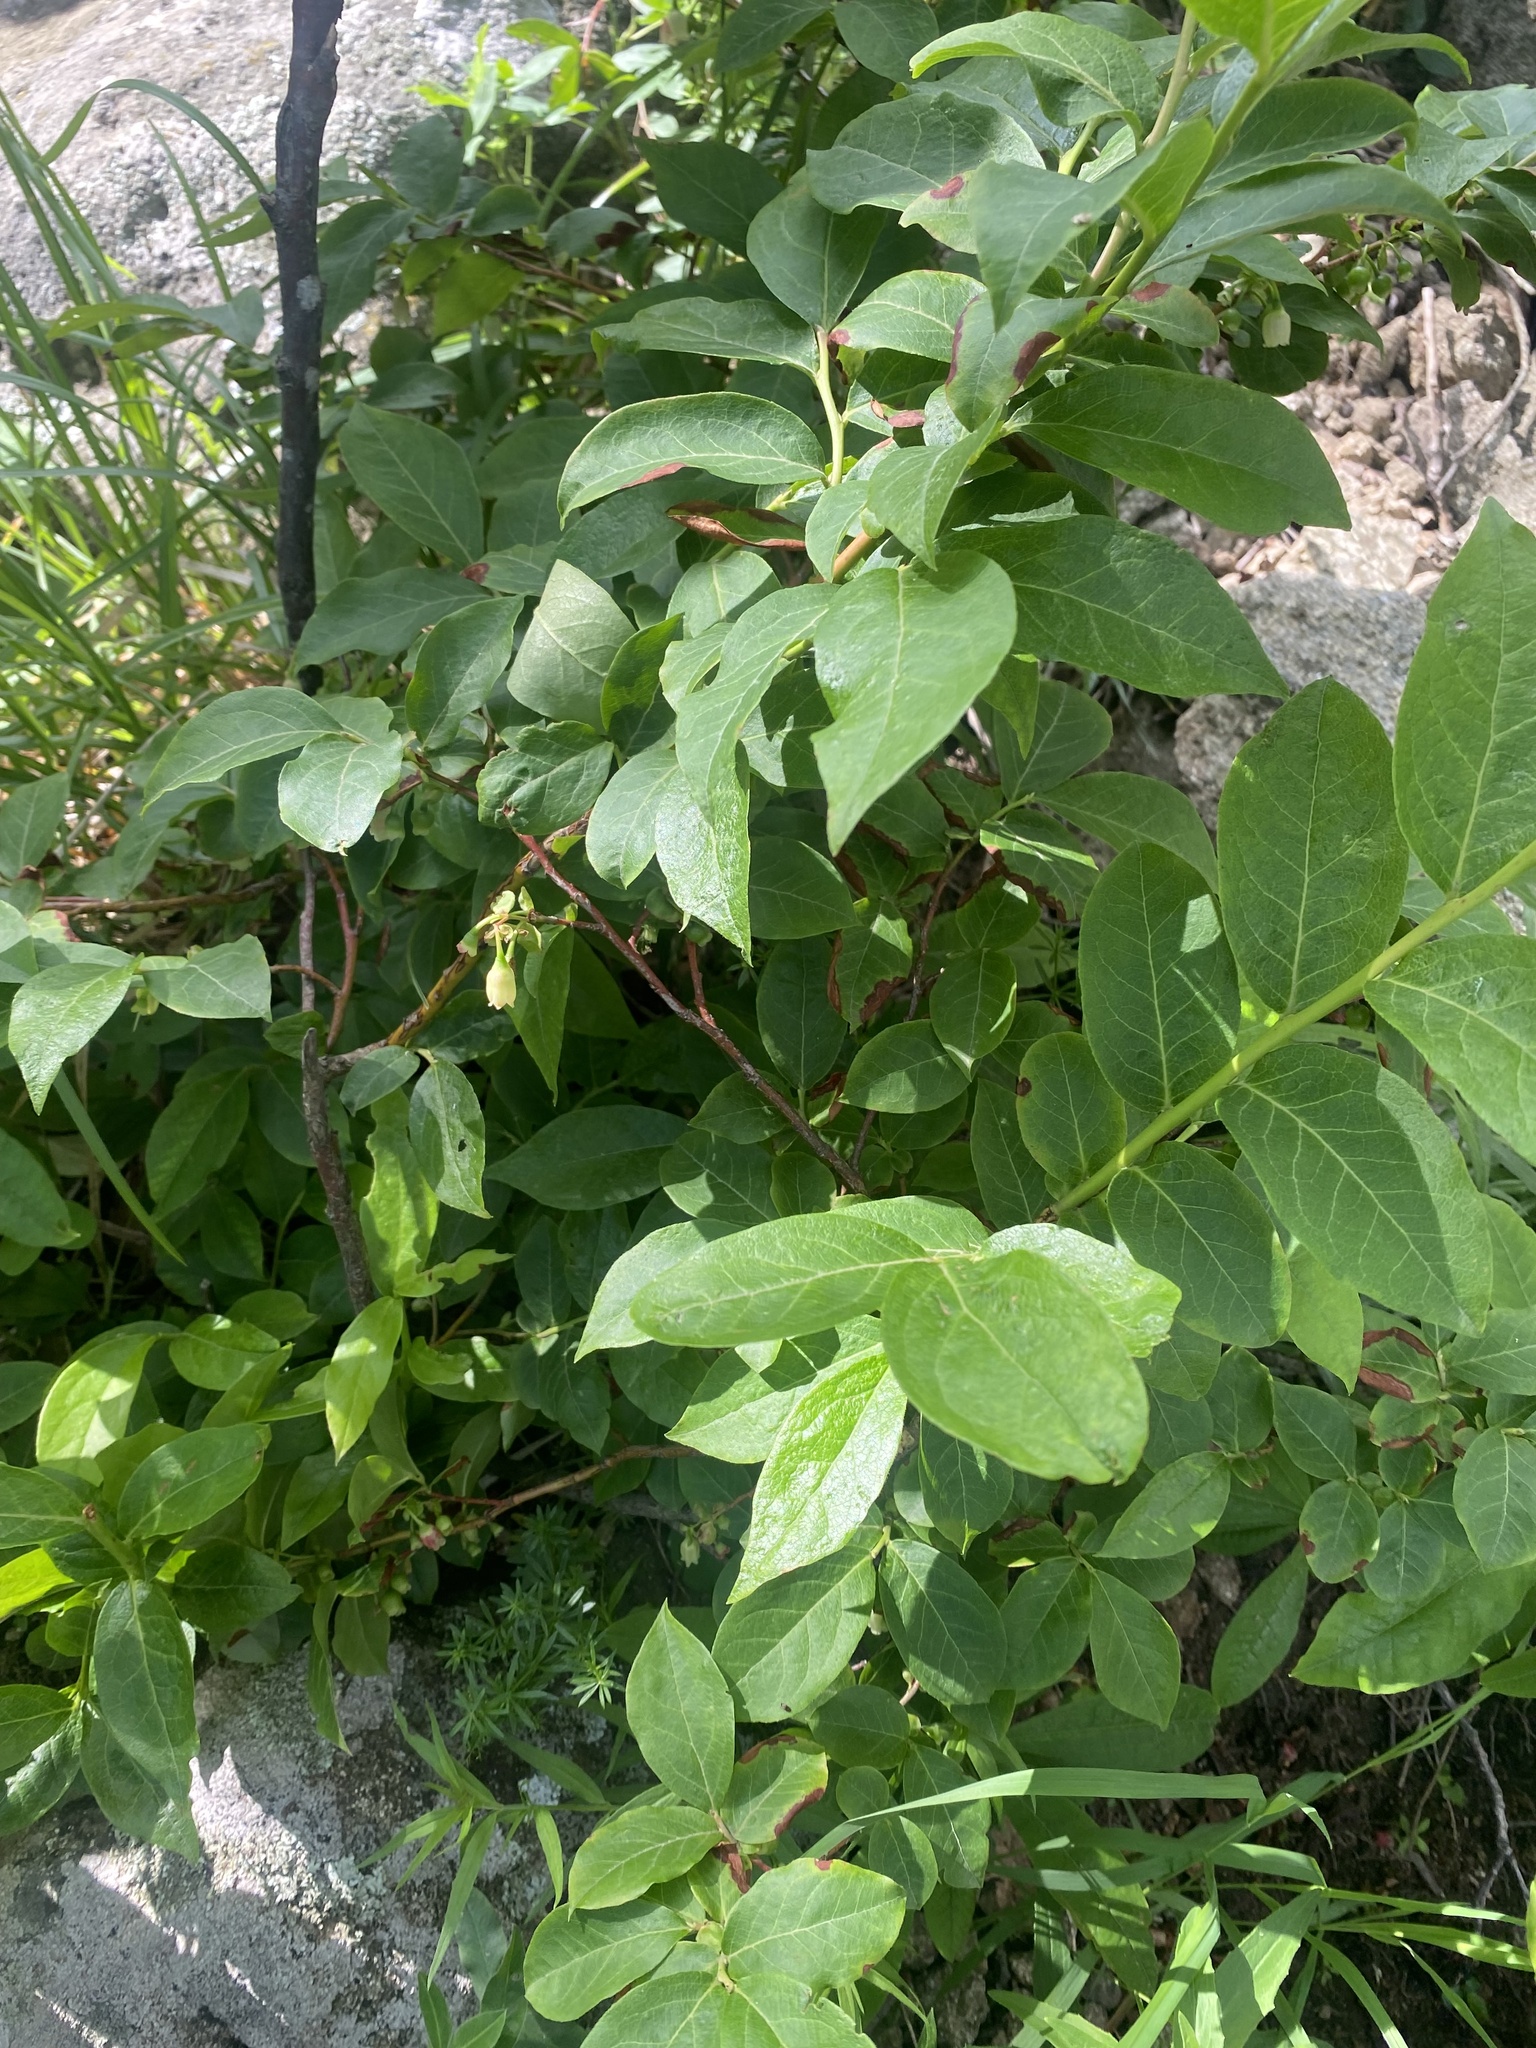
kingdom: Plantae
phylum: Tracheophyta
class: Magnoliopsida
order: Ericales
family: Ericaceae
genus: Vaccinium
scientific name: Vaccinium arctostaphylos
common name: Caucasian whortleberry
